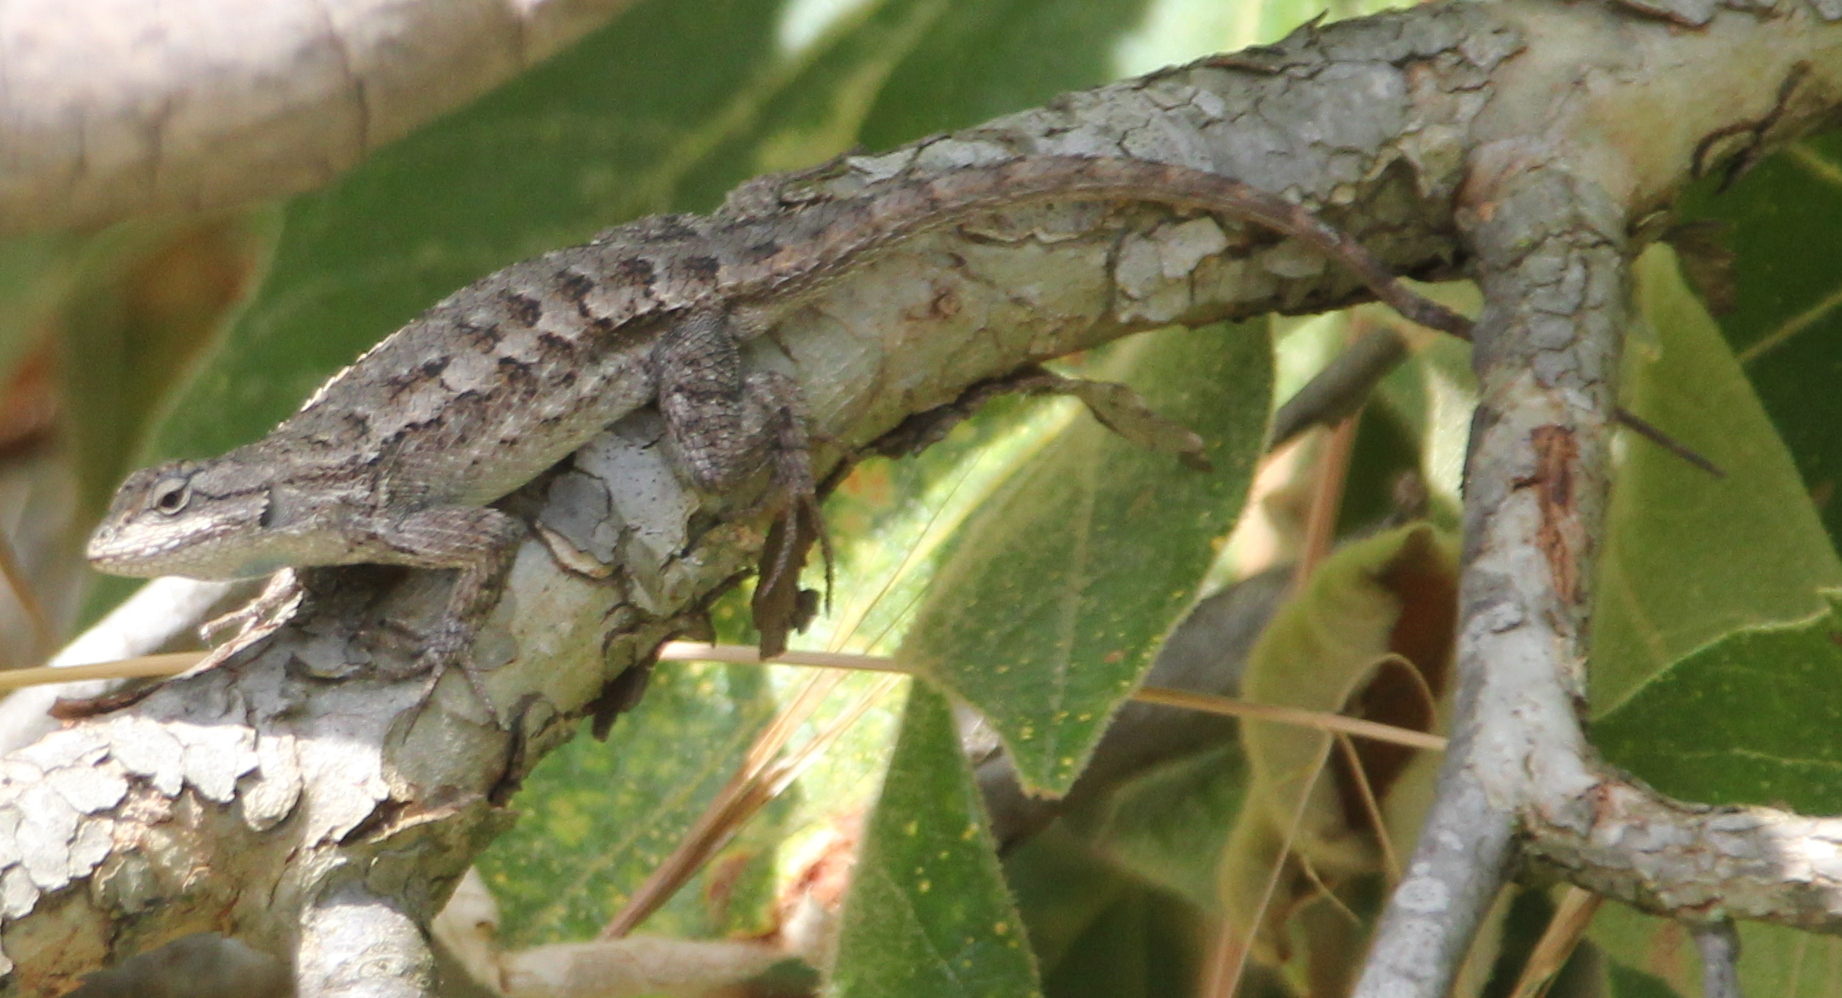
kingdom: Animalia
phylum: Chordata
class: Squamata
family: Phrynosomatidae
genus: Sceloporus
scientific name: Sceloporus occidentalis
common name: Western fence lizard
